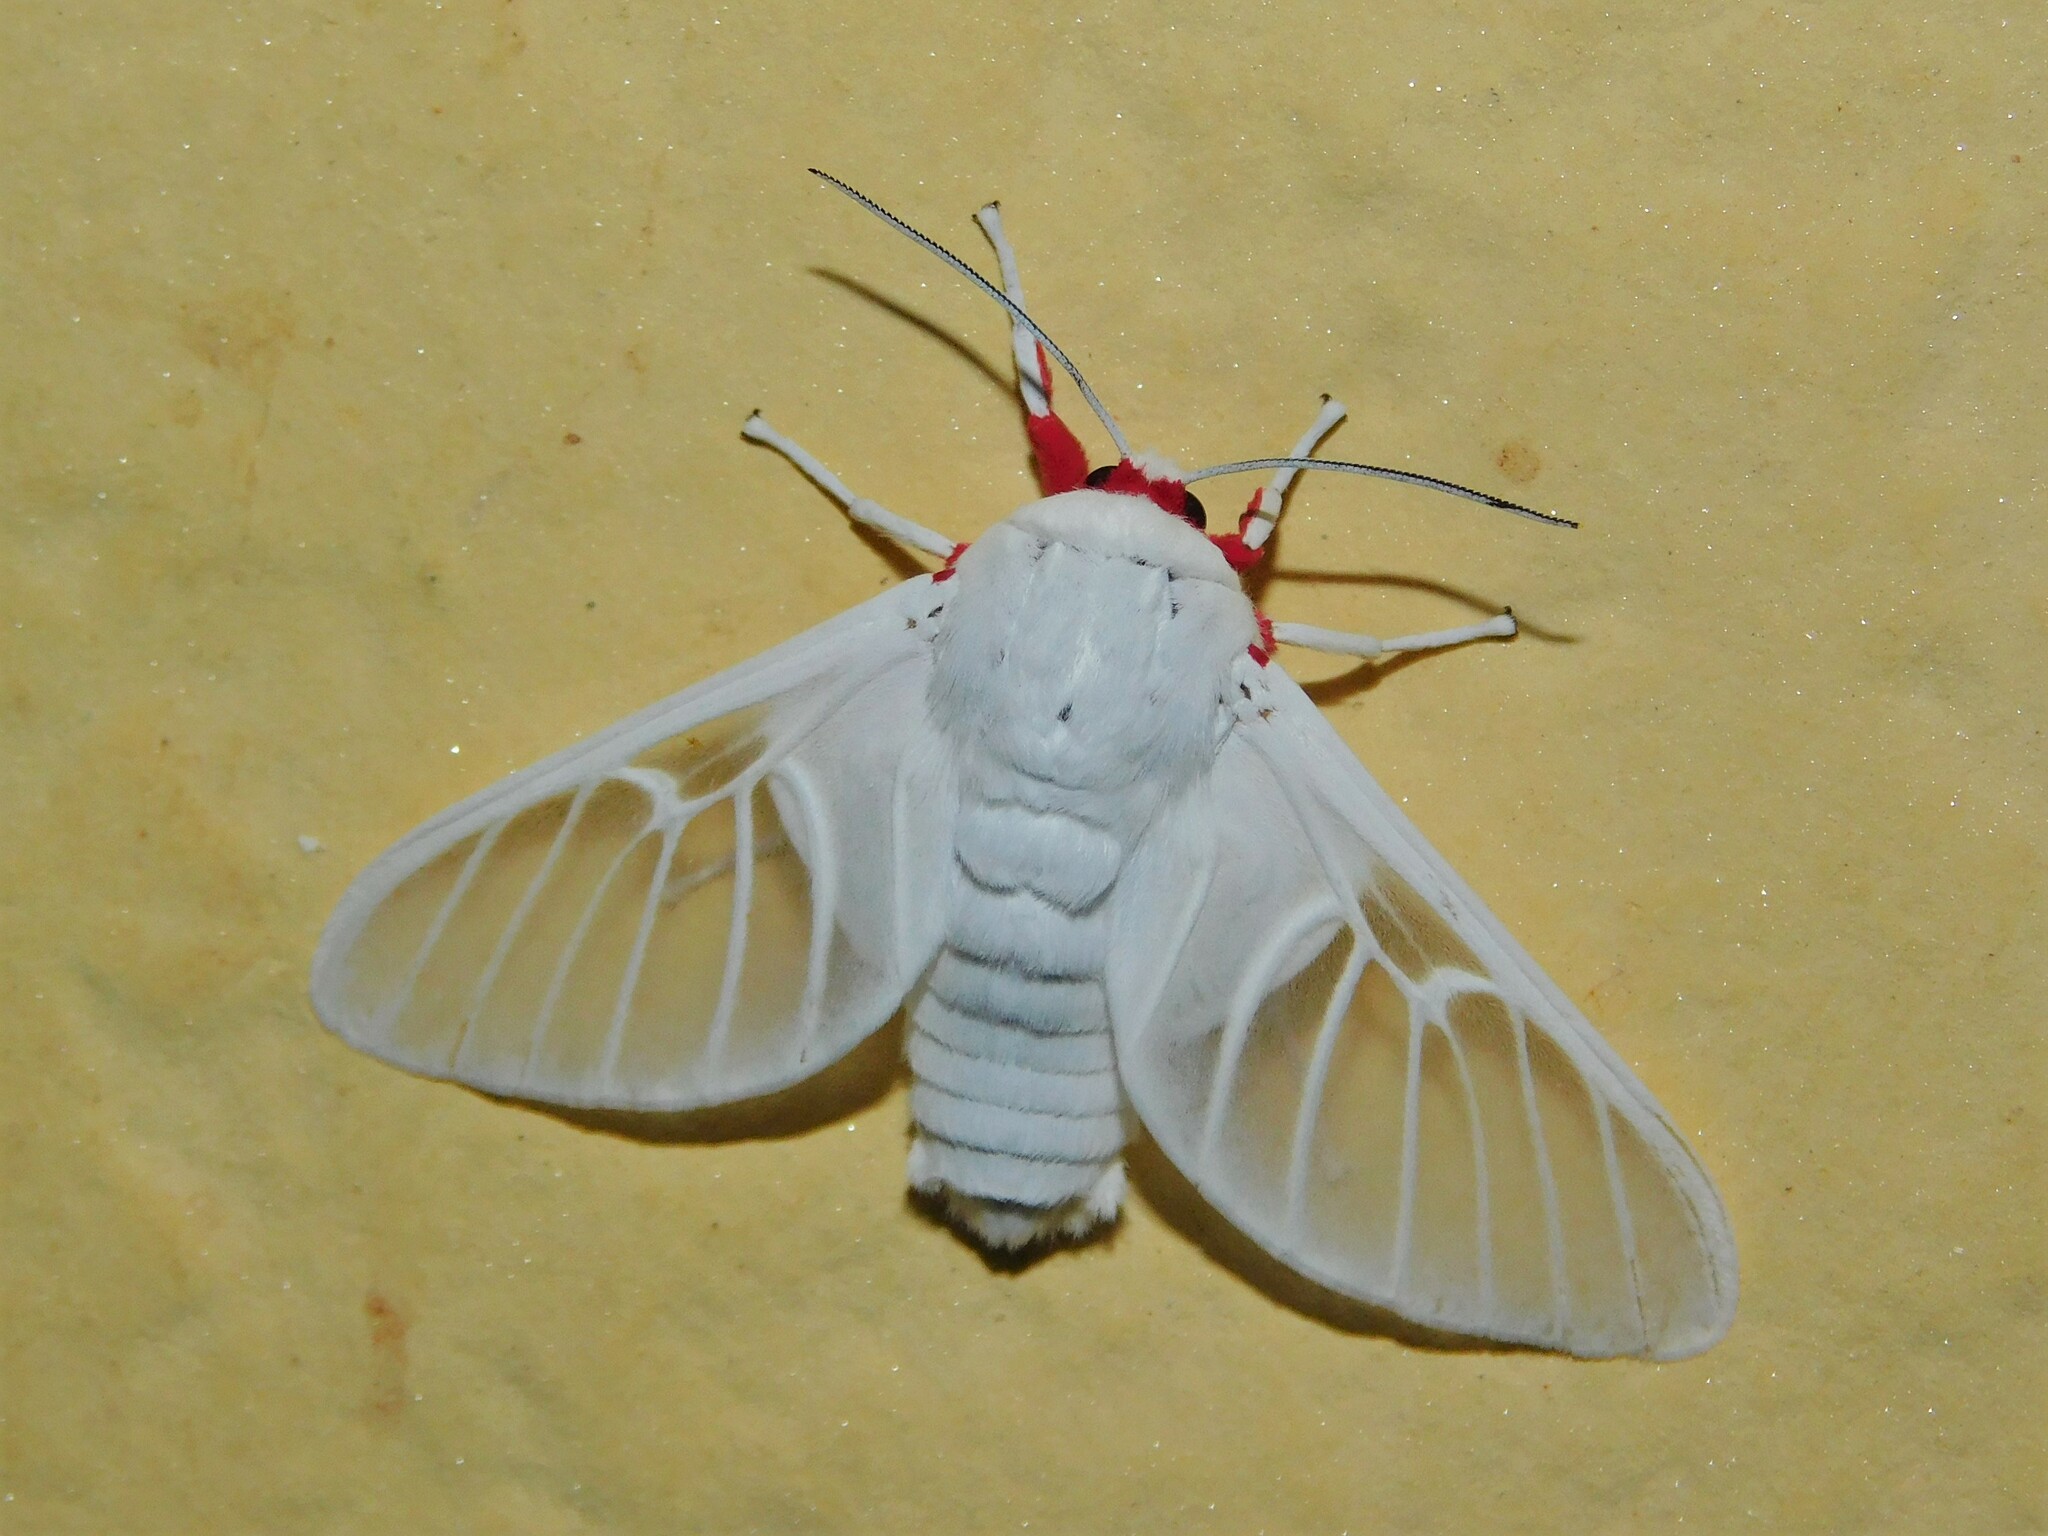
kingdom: Animalia
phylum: Arthropoda
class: Insecta
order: Lepidoptera
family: Erebidae
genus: Balacra
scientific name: Balacra pulchra
